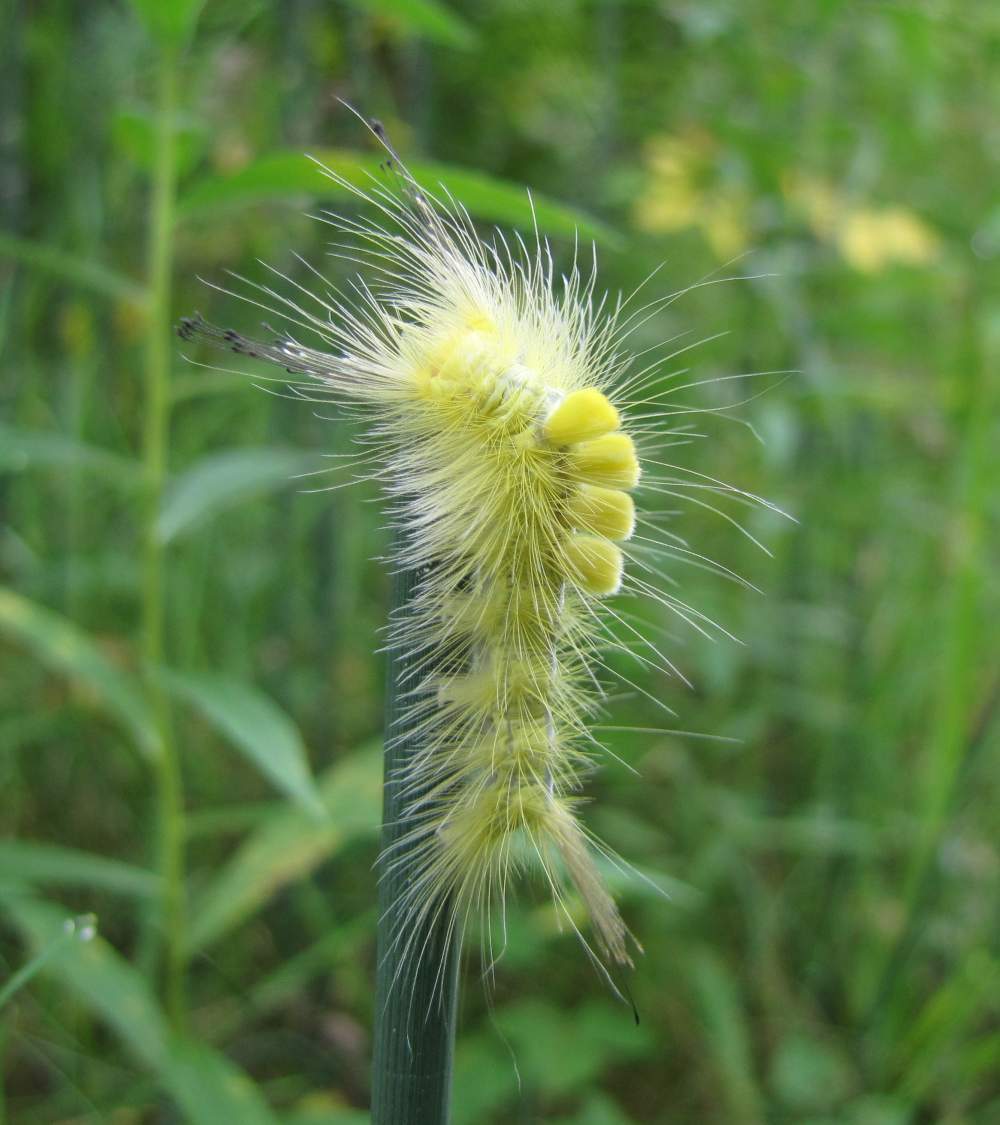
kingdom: Animalia
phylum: Arthropoda
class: Insecta
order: Lepidoptera
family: Erebidae
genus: Orgyia
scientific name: Orgyia definita
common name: Definite tussock moth
